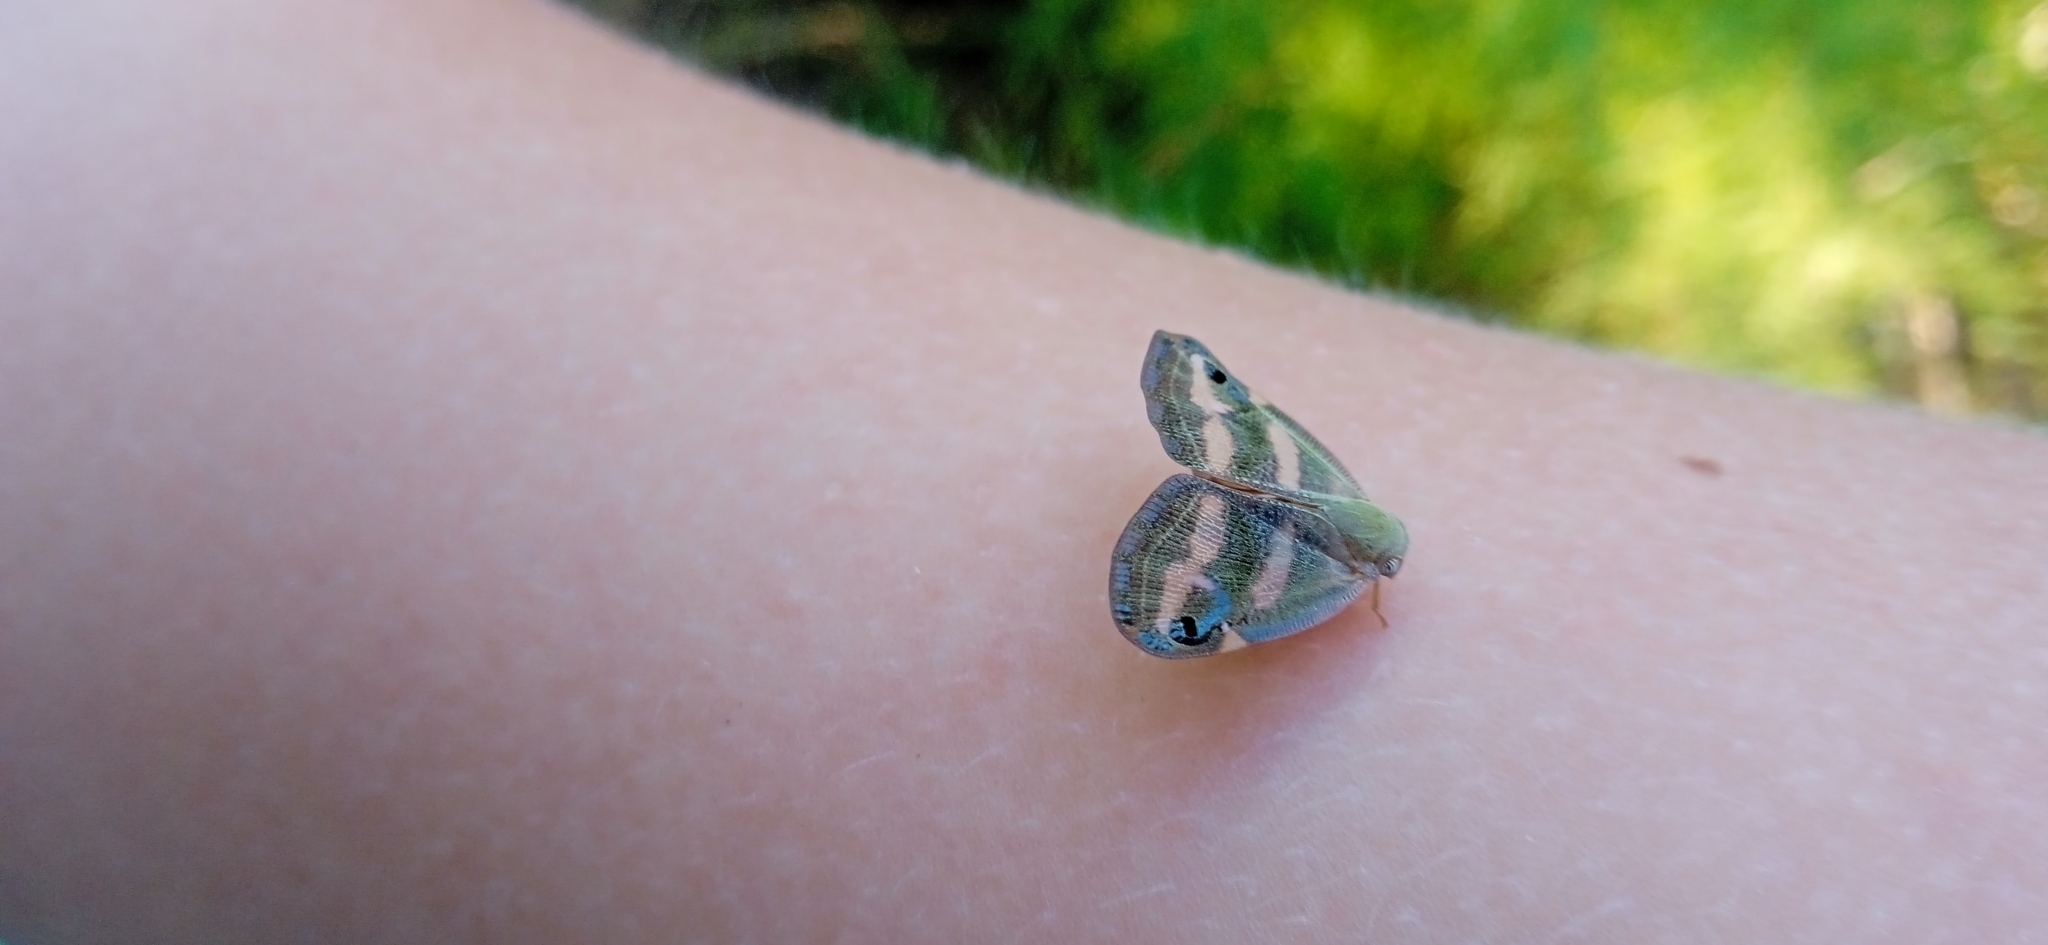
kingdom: Animalia
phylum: Arthropoda
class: Insecta
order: Hemiptera
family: Ricaniidae
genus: Orosanga
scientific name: Orosanga japonica
